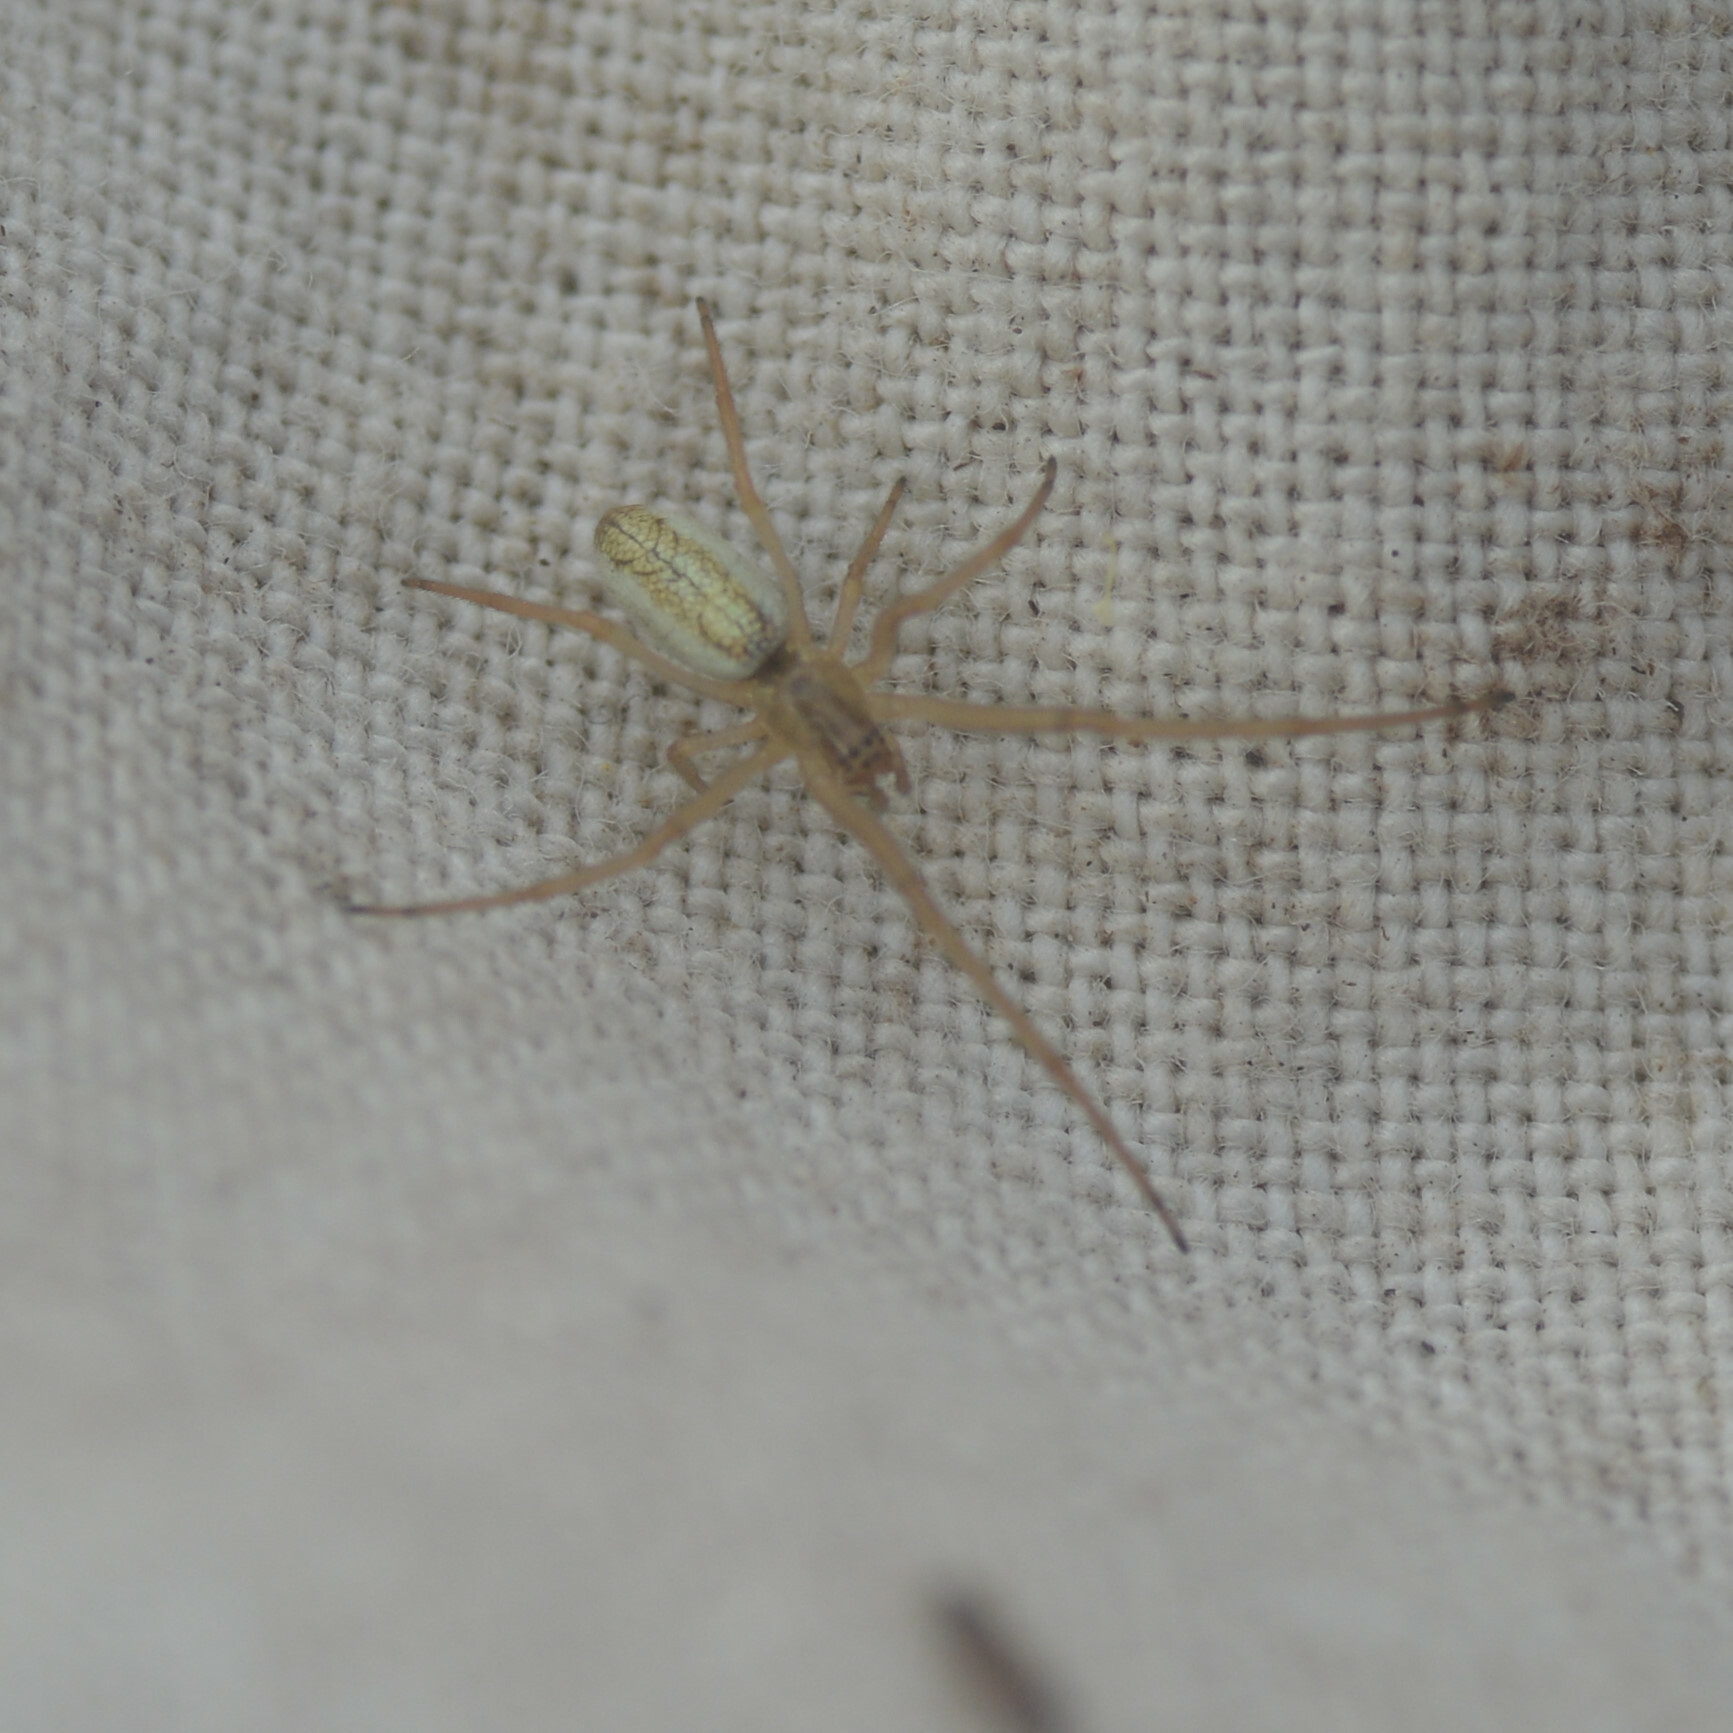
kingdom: Animalia
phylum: Arthropoda
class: Arachnida
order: Araneae
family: Tetragnathidae
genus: Tetragnatha
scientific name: Tetragnatha pinicola
